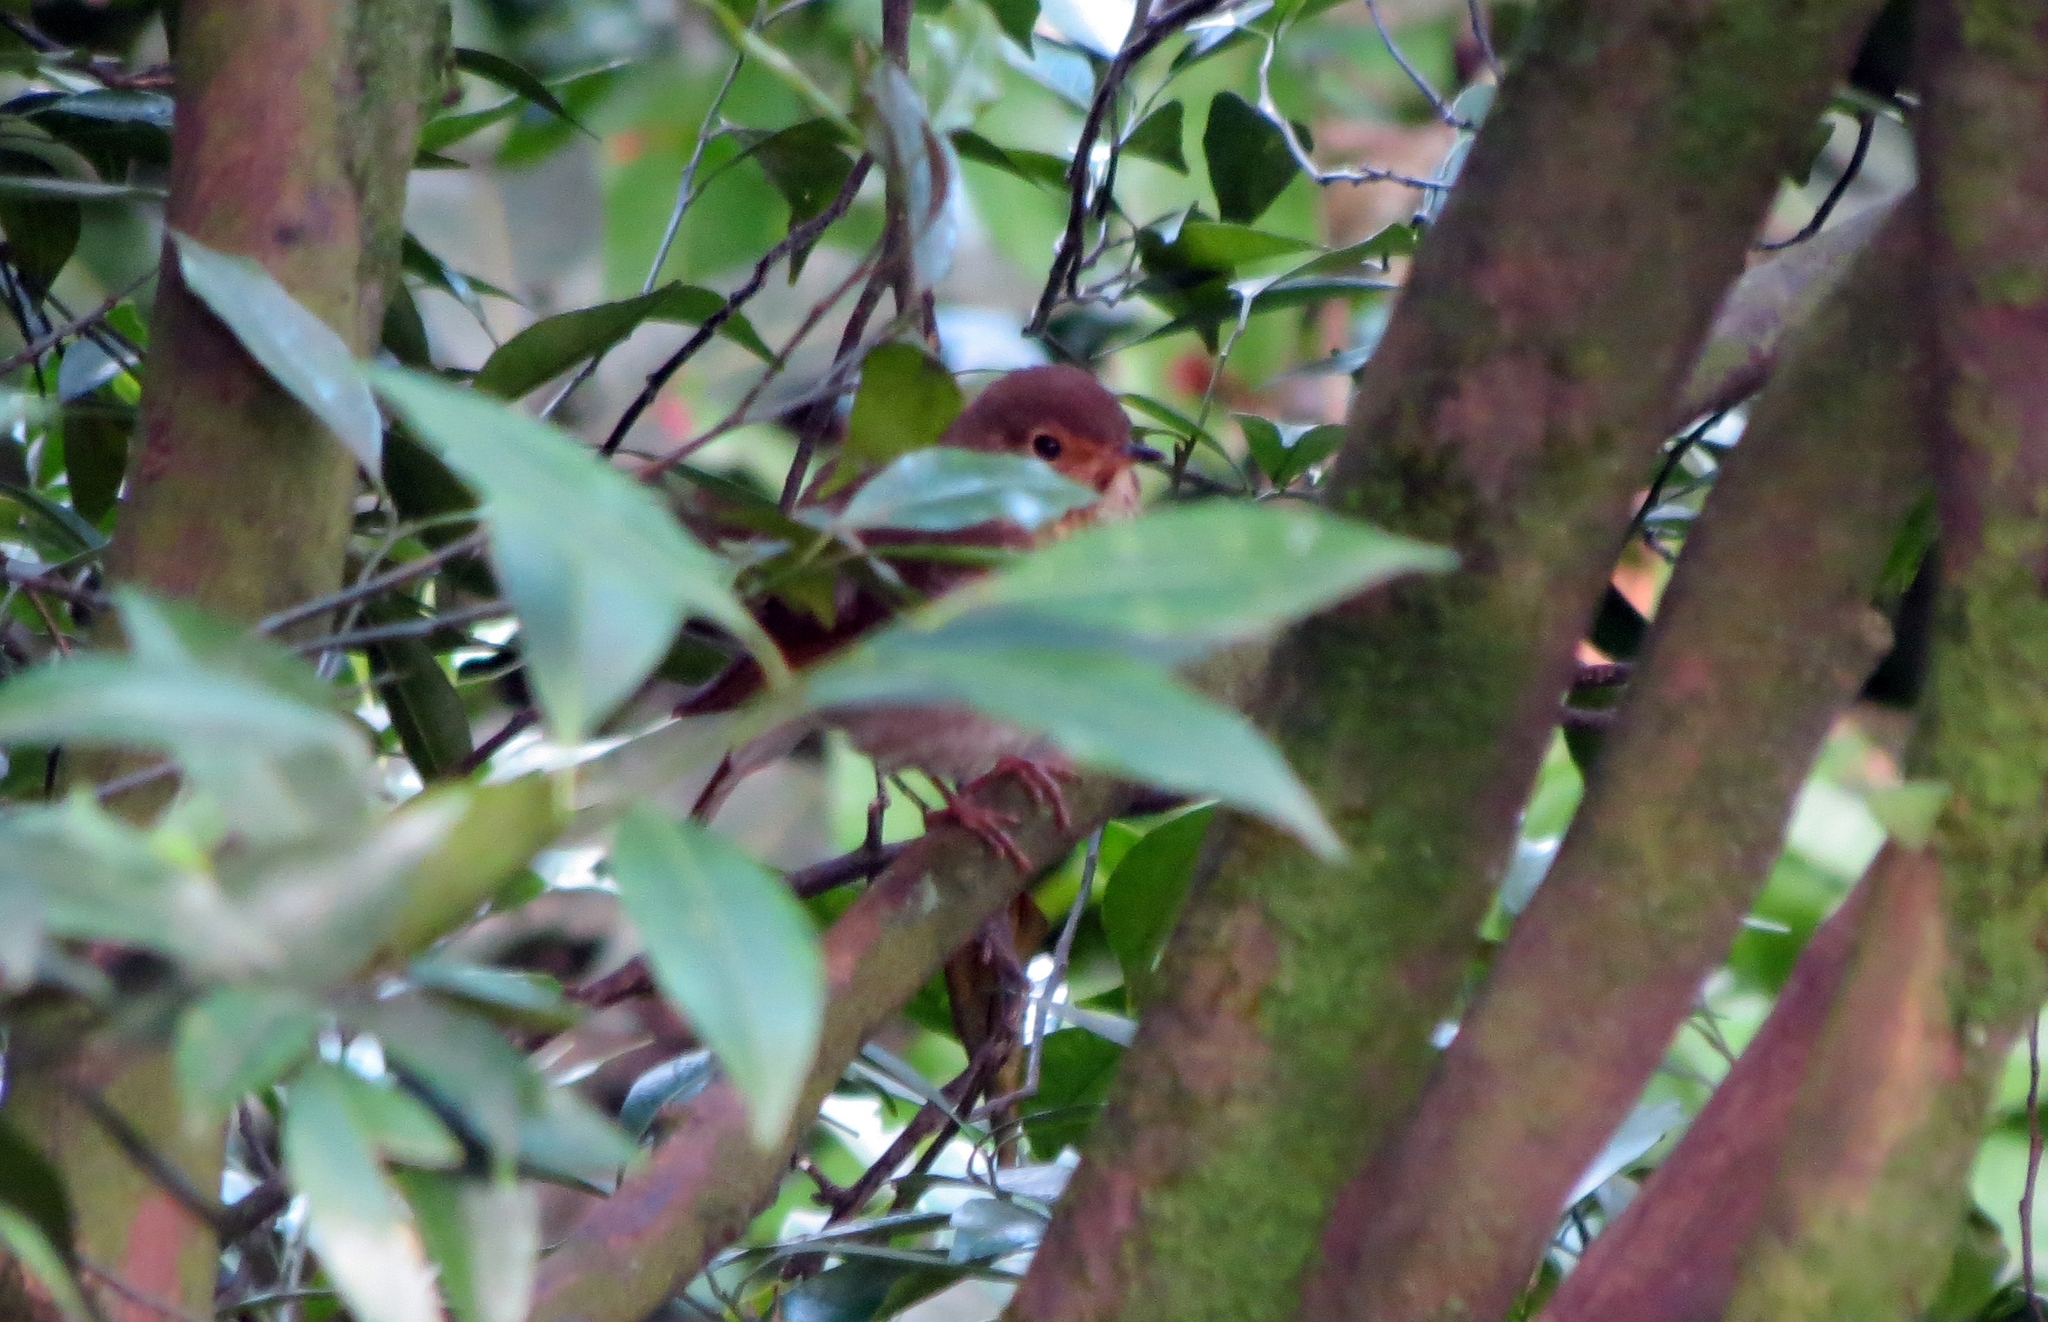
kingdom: Animalia
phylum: Chordata
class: Aves
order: Passeriformes
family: Turdidae
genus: Catharus
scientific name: Catharus ustulatus
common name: Swainson's thrush
